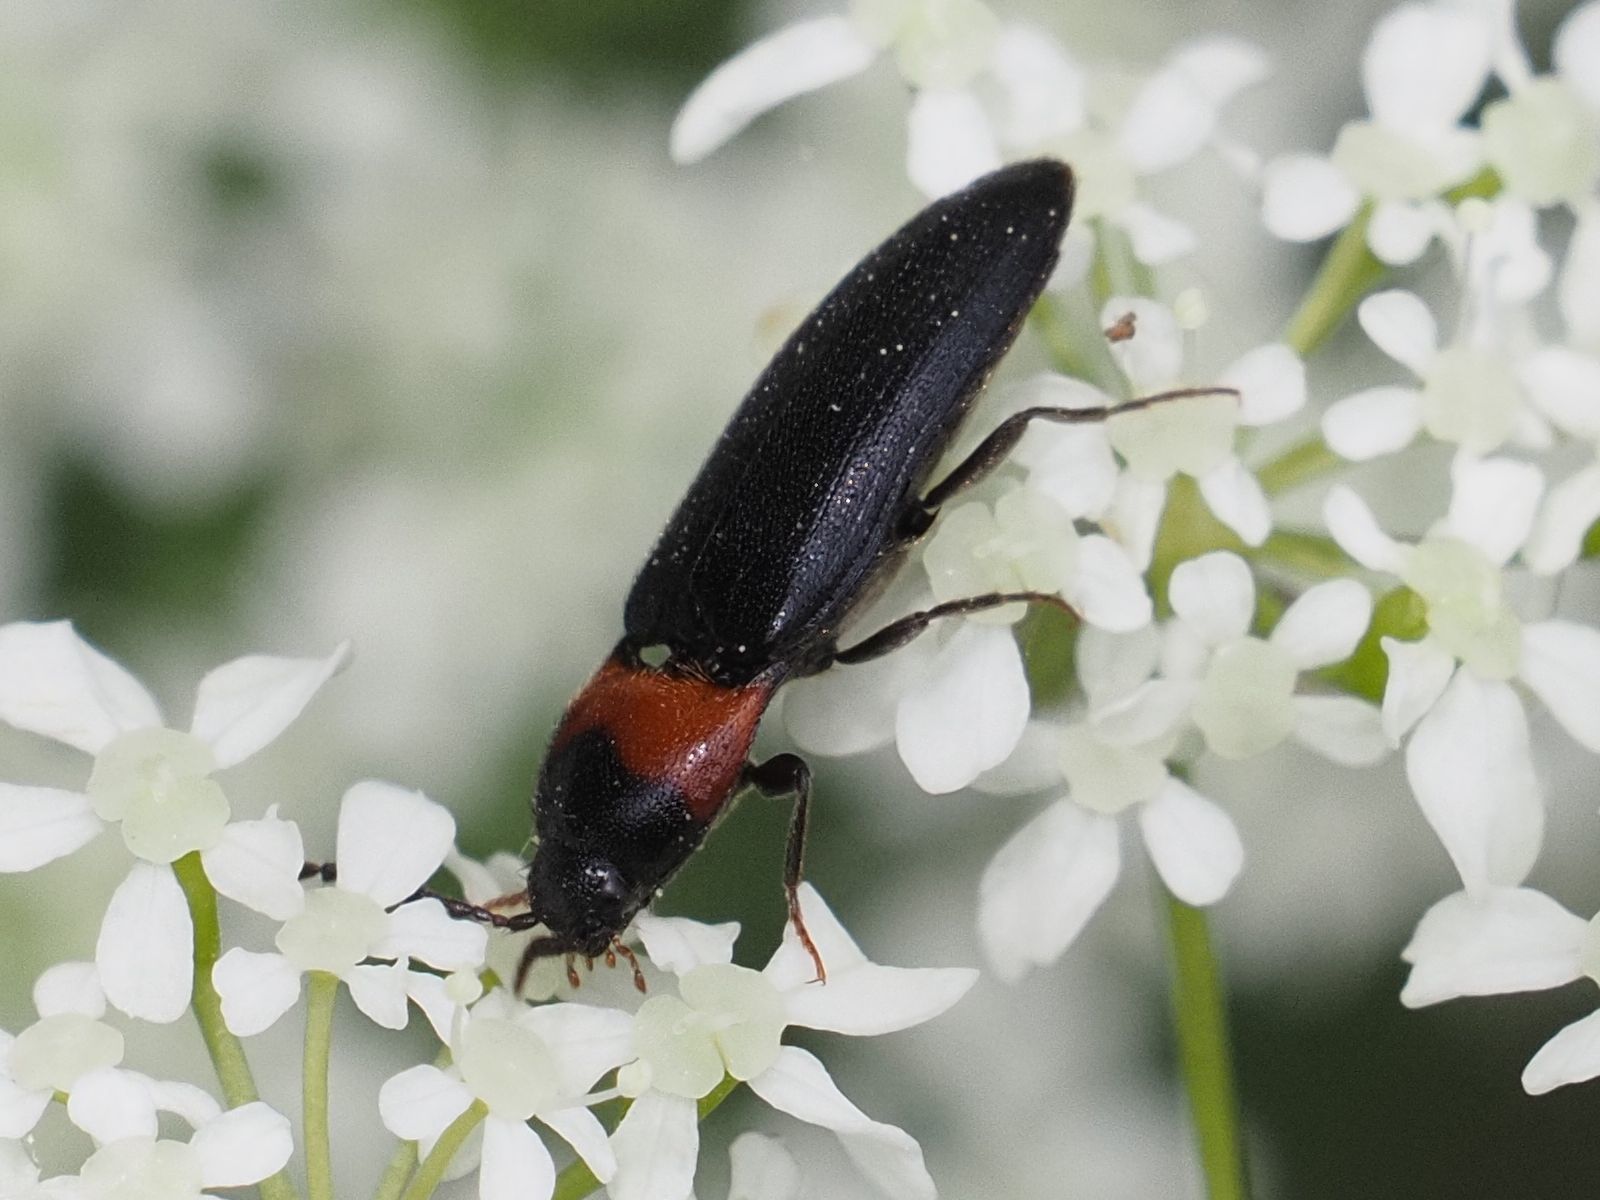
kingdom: Animalia
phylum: Arthropoda
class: Insecta
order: Coleoptera
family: Elateridae
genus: Ampedus
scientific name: Ampedus sinuatus
